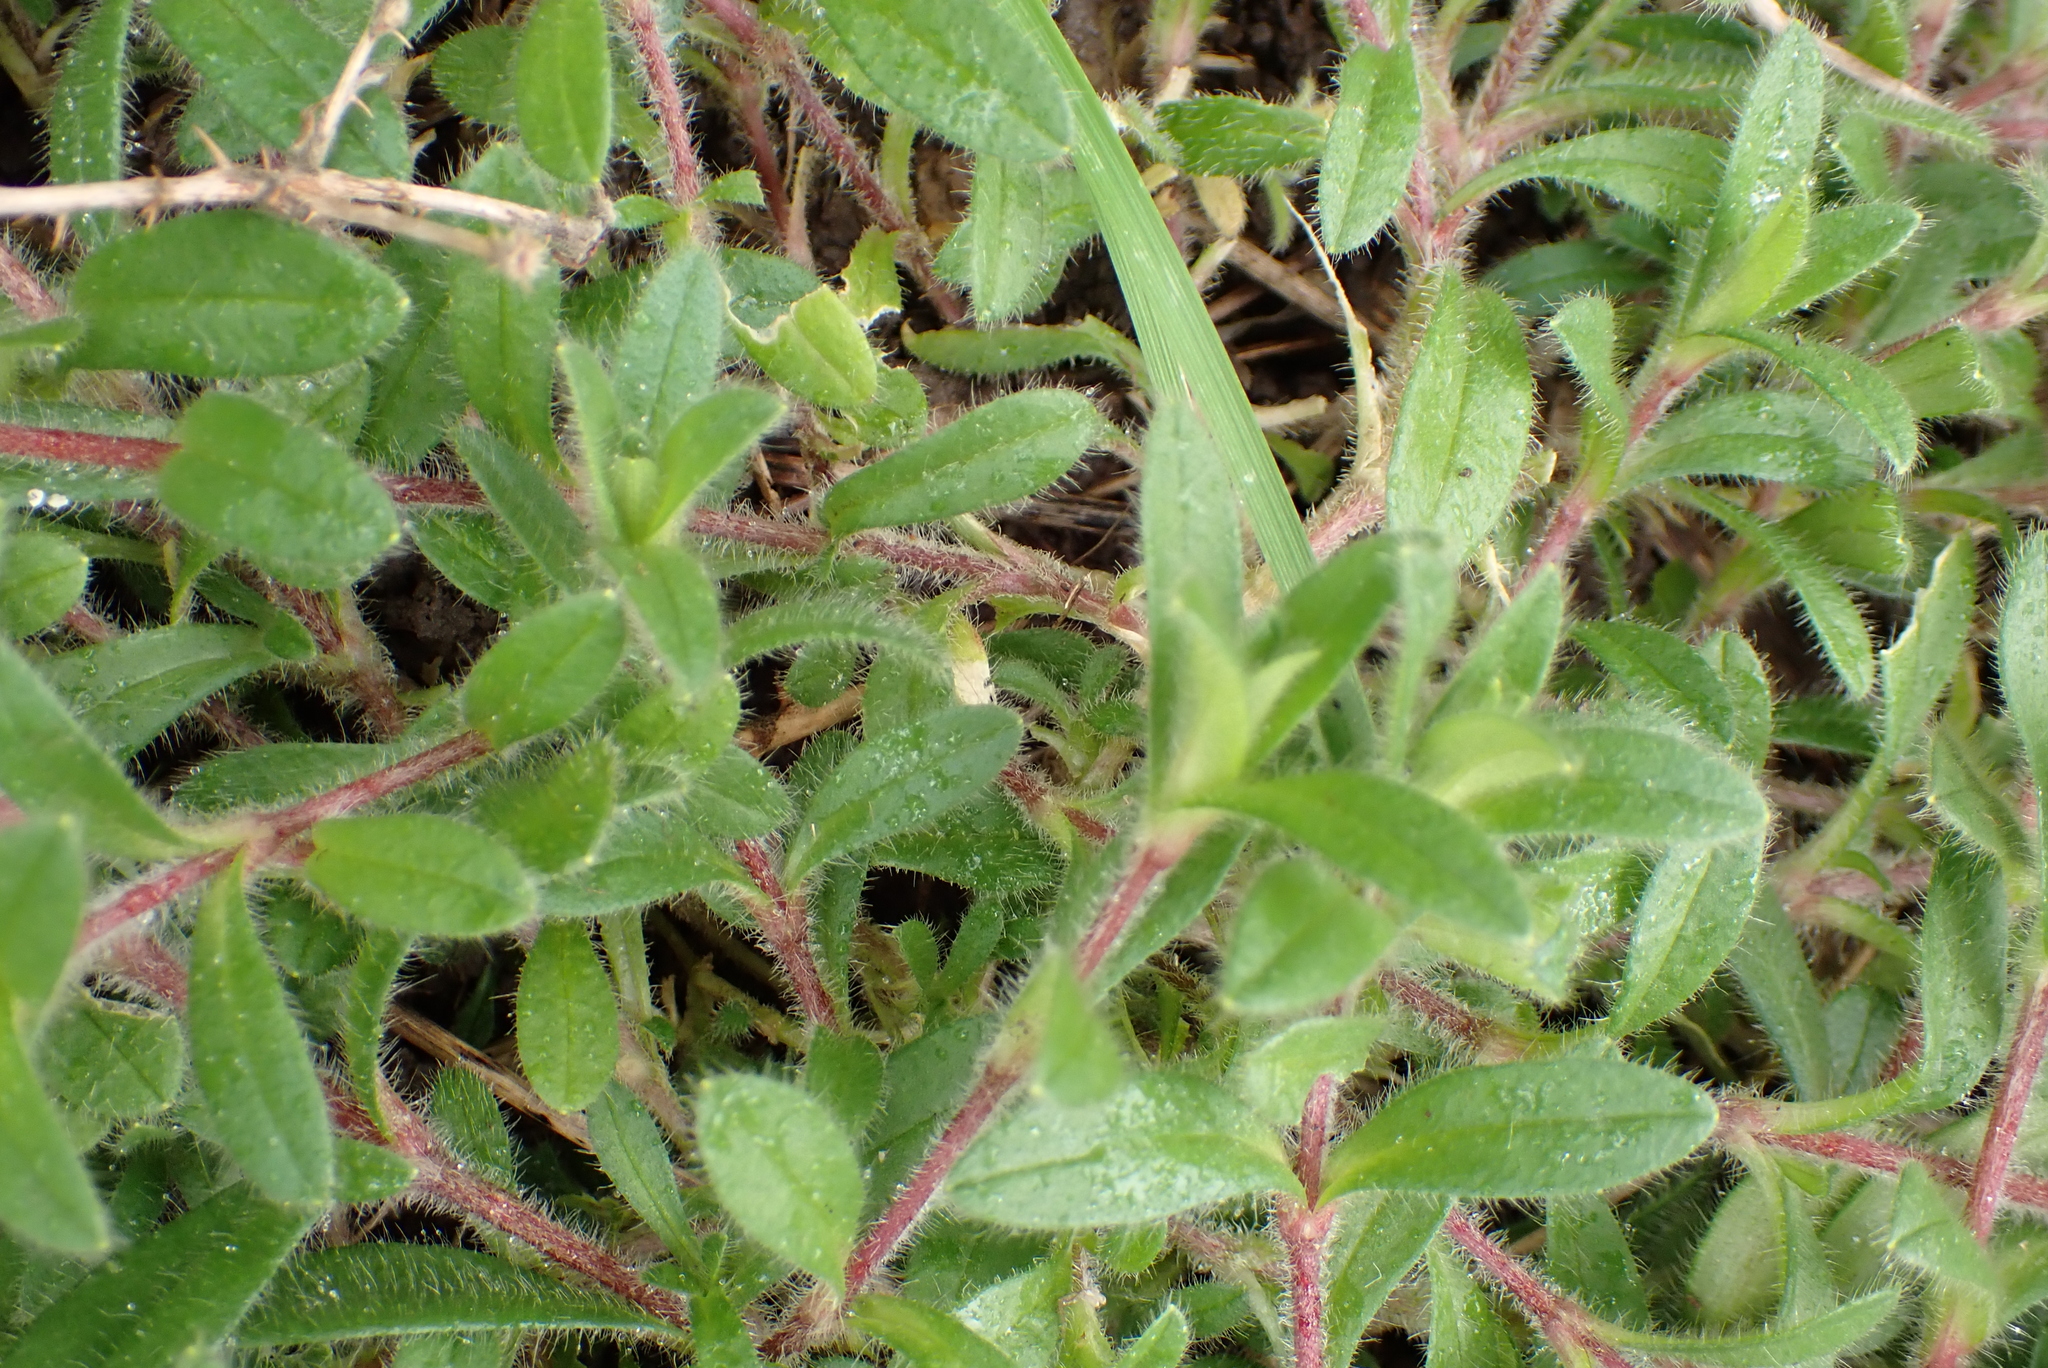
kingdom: Plantae
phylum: Tracheophyta
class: Magnoliopsida
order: Caryophyllales
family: Caryophyllaceae
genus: Cerastium
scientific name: Cerastium fontanum
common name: Common mouse-ear
